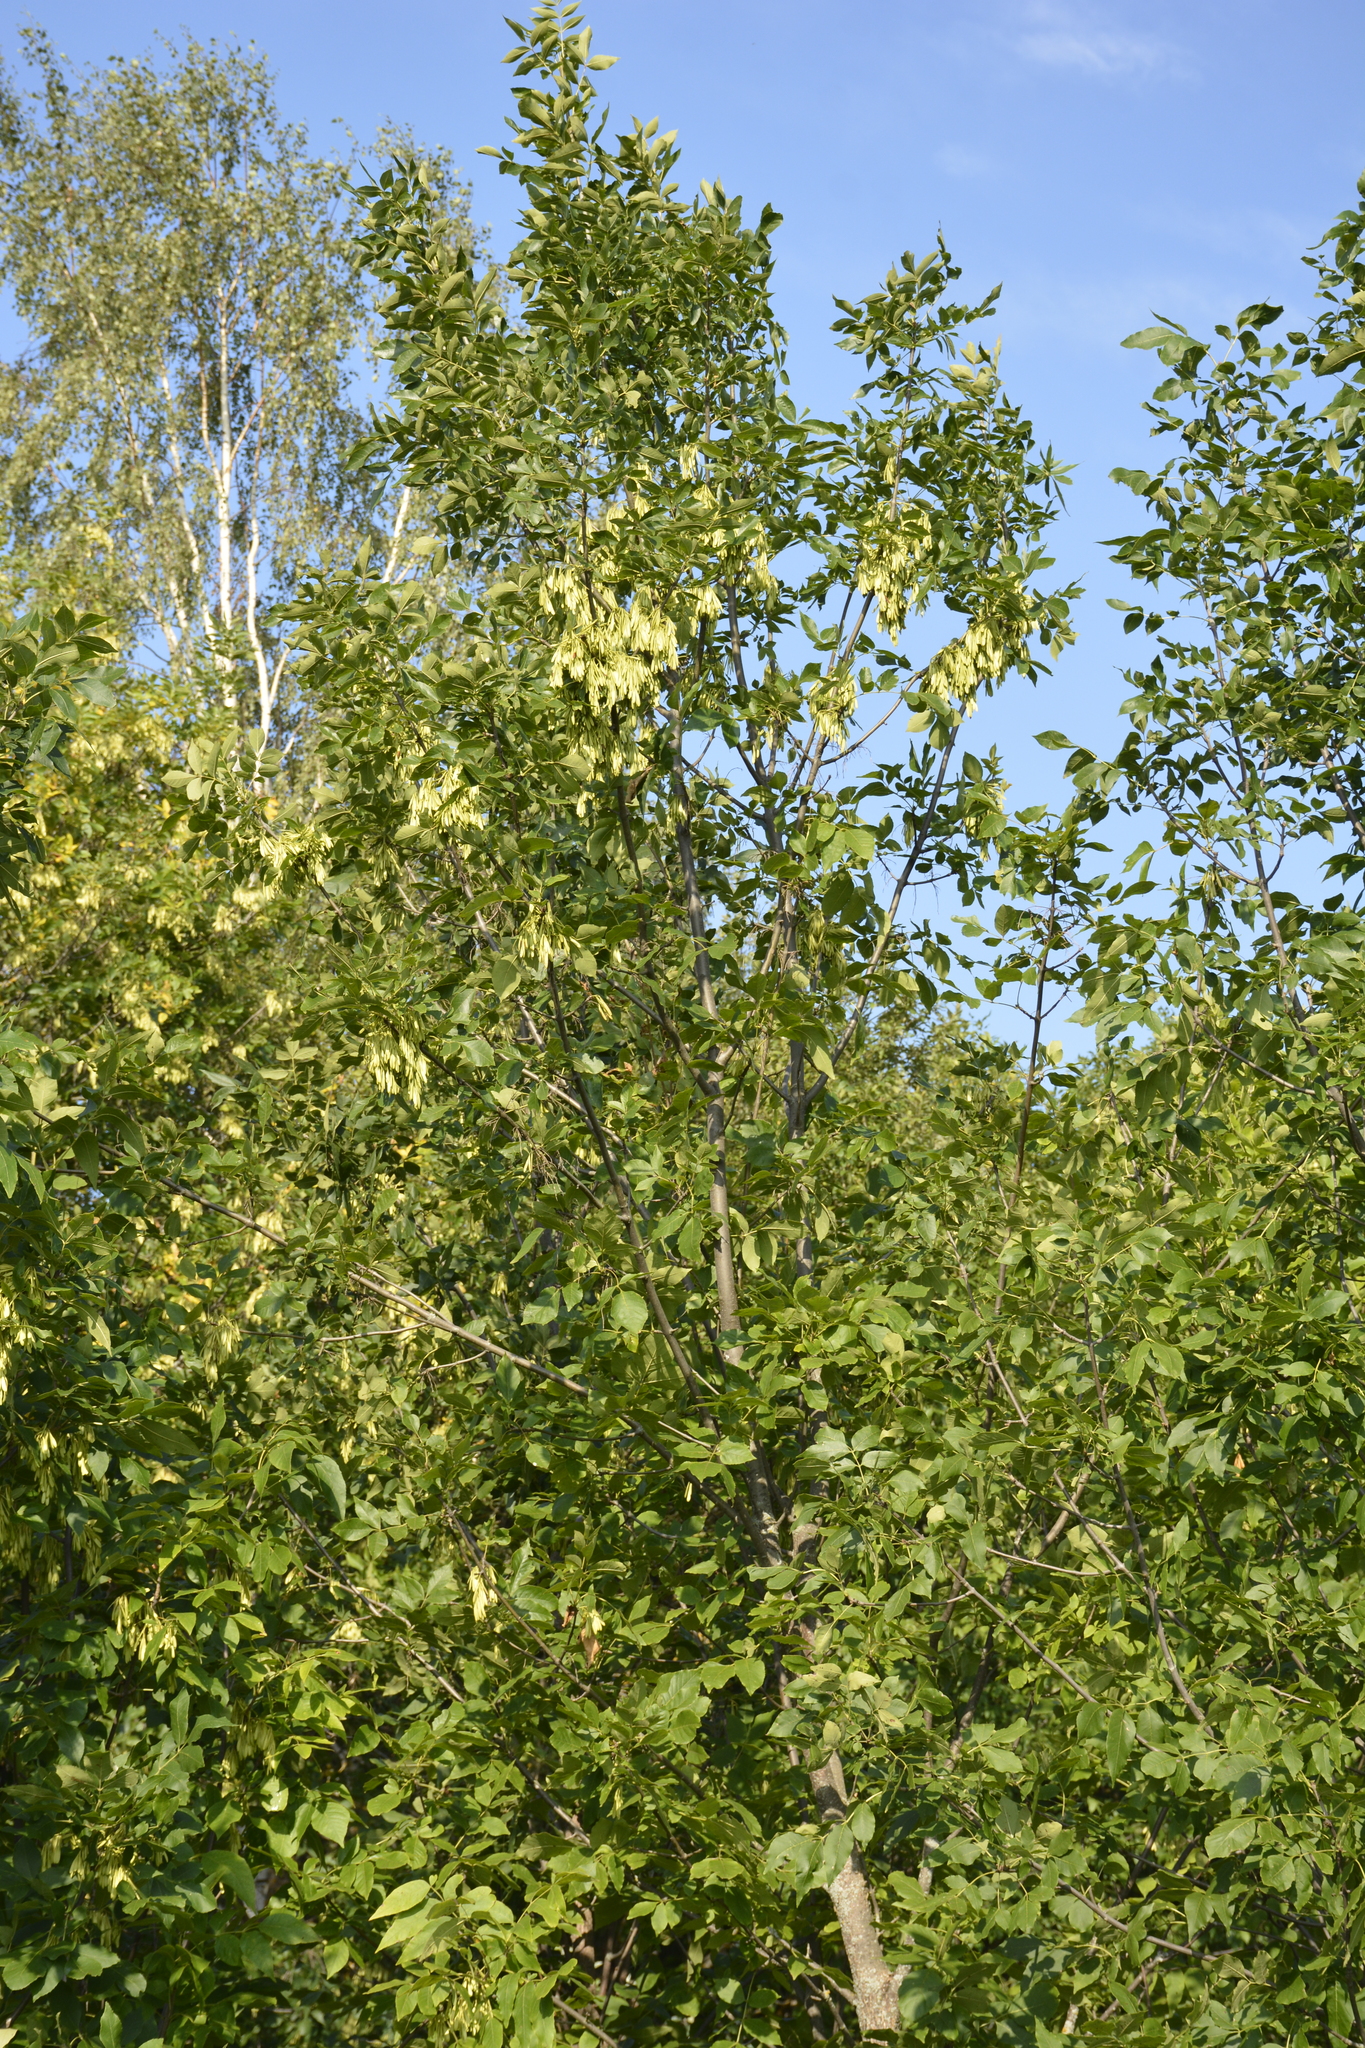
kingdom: Plantae
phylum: Tracheophyta
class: Magnoliopsida
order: Lamiales
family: Oleaceae
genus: Fraxinus
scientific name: Fraxinus pennsylvanica
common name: Green ash
